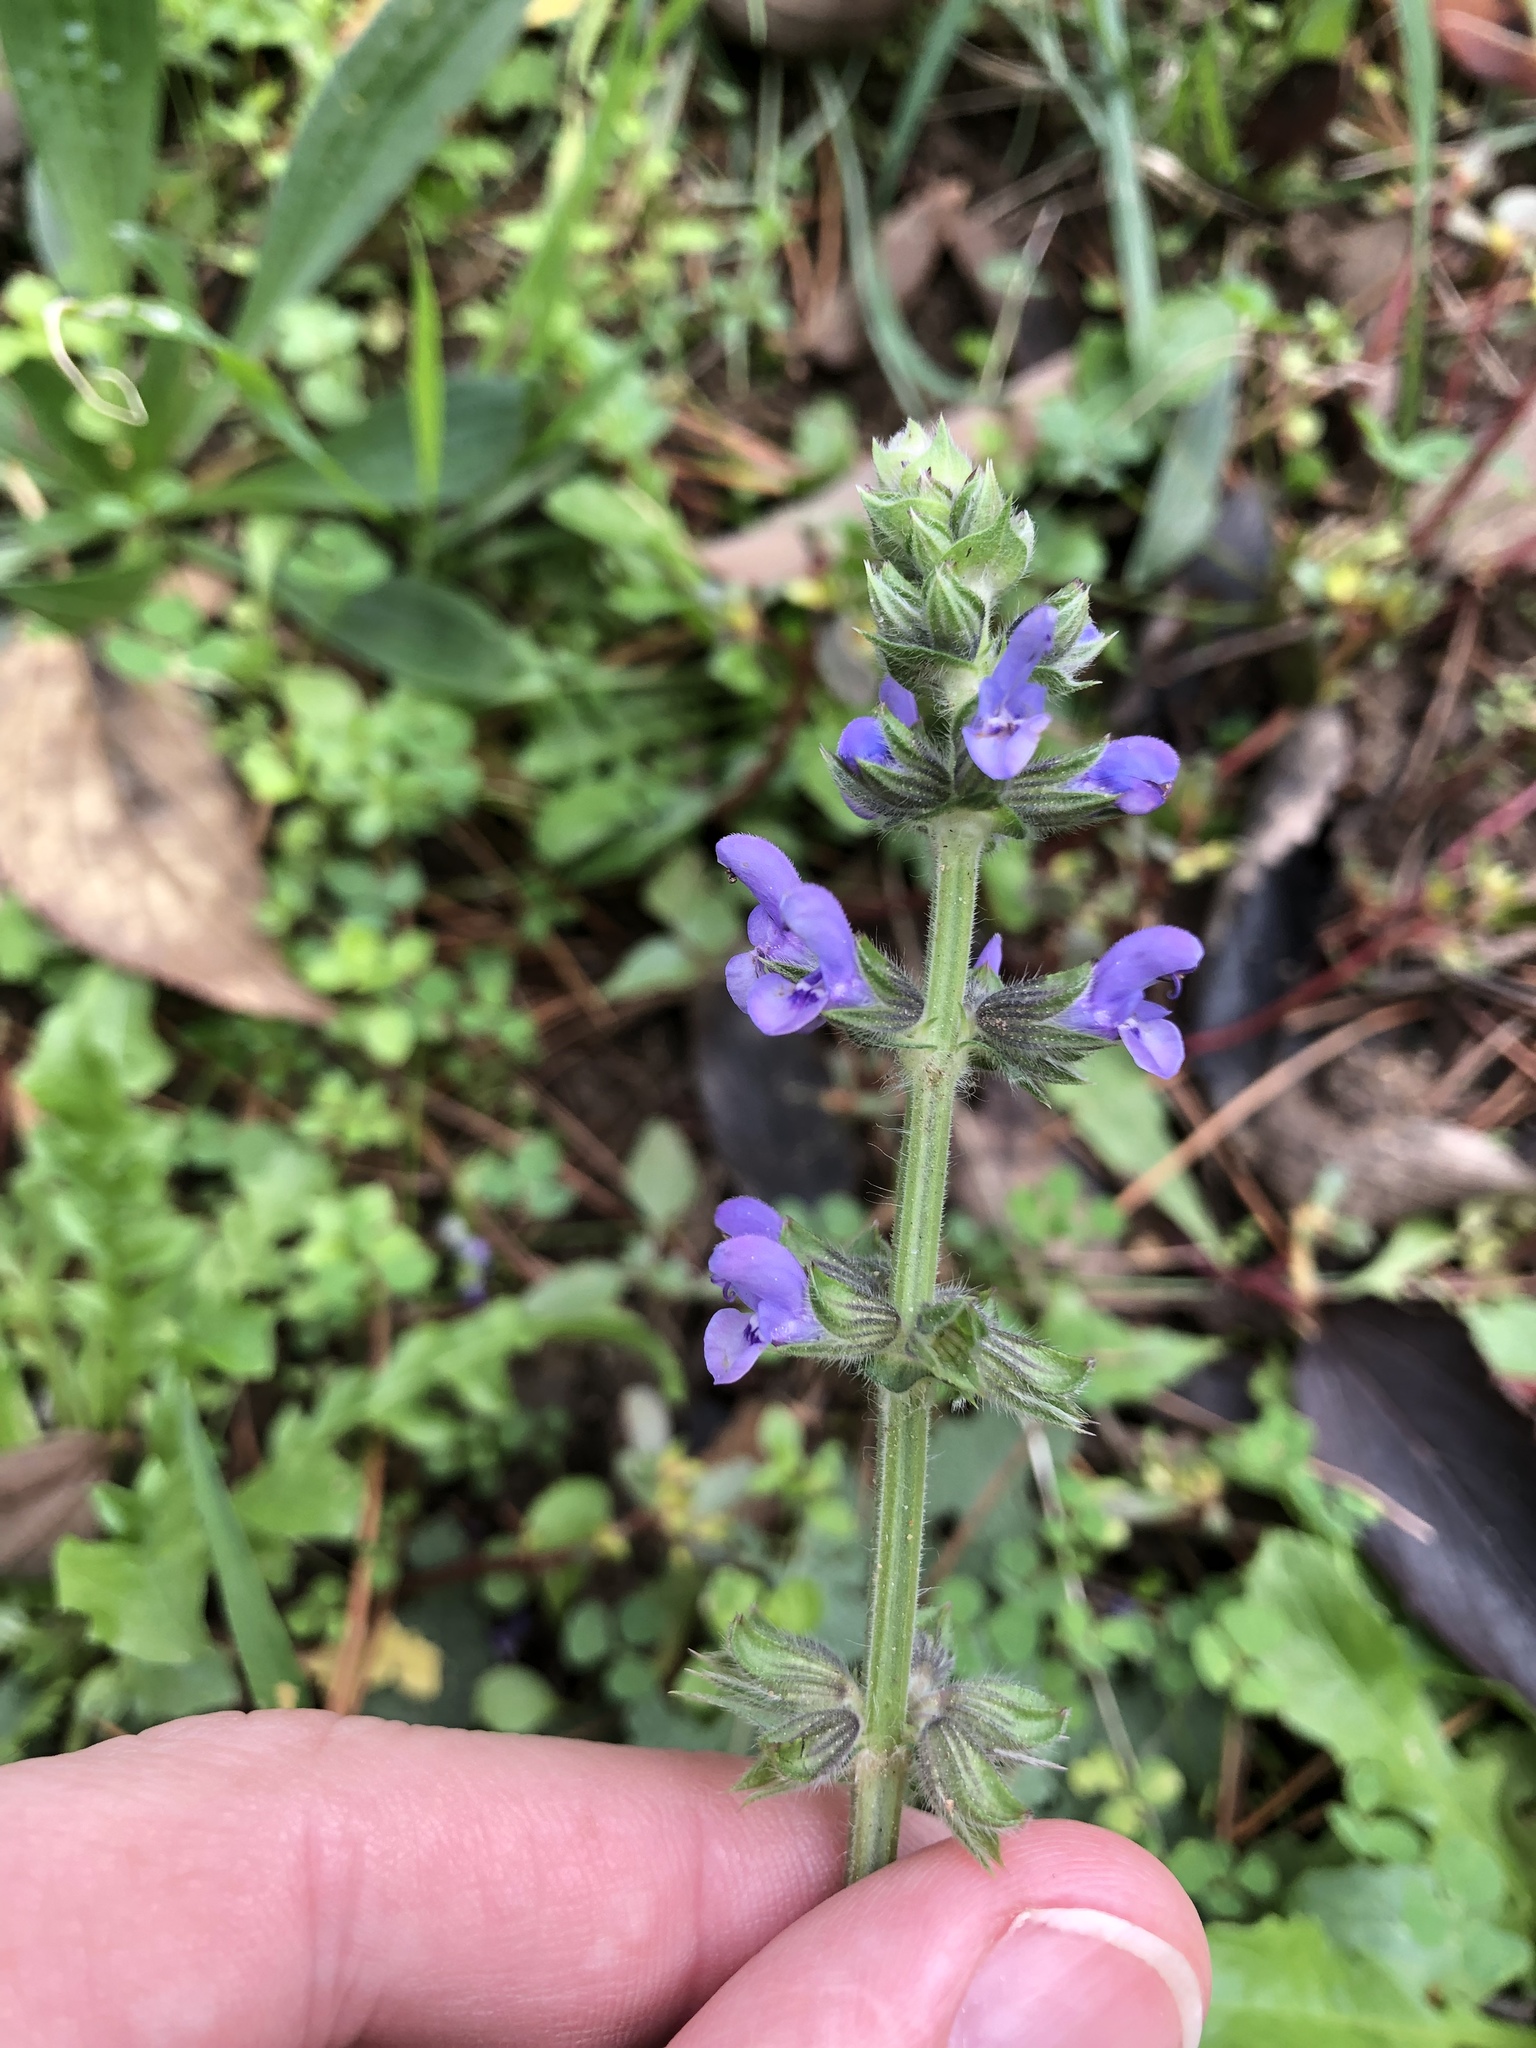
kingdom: Plantae
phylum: Tracheophyta
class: Magnoliopsida
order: Lamiales
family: Lamiaceae
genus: Salvia
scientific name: Salvia verbenaca
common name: Wild clary
